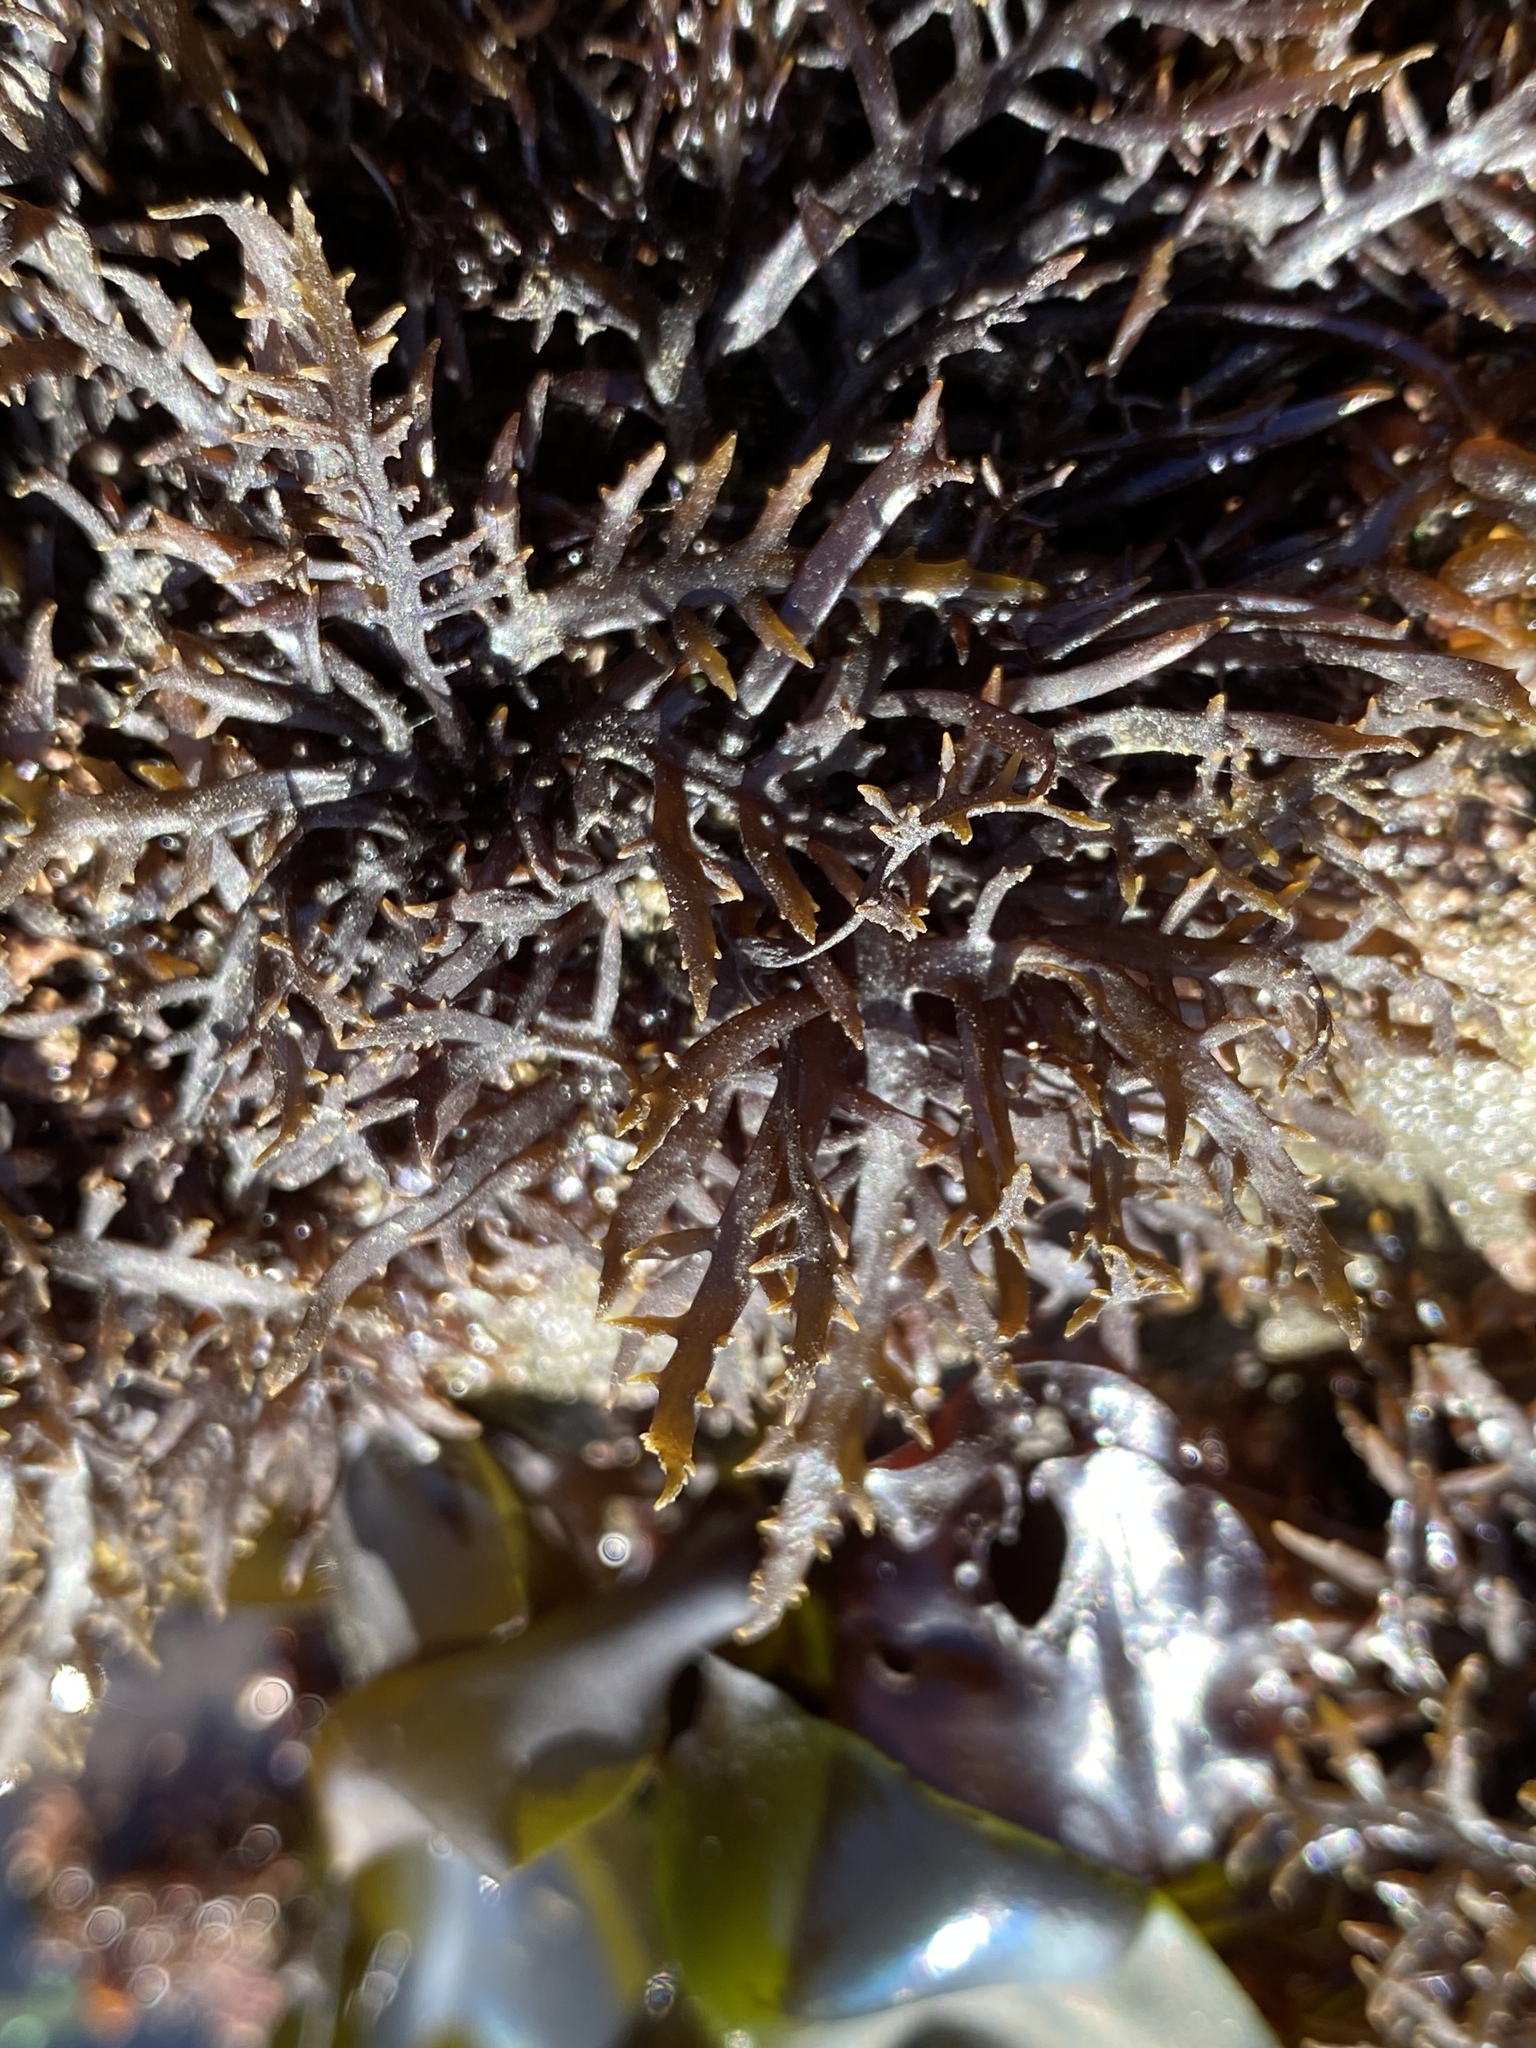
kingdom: Plantae
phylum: Rhodophyta
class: Florideophyceae
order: Gigartinales
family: Gigartinaceae
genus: Chondracanthus
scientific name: Chondracanthus canaliculatus
